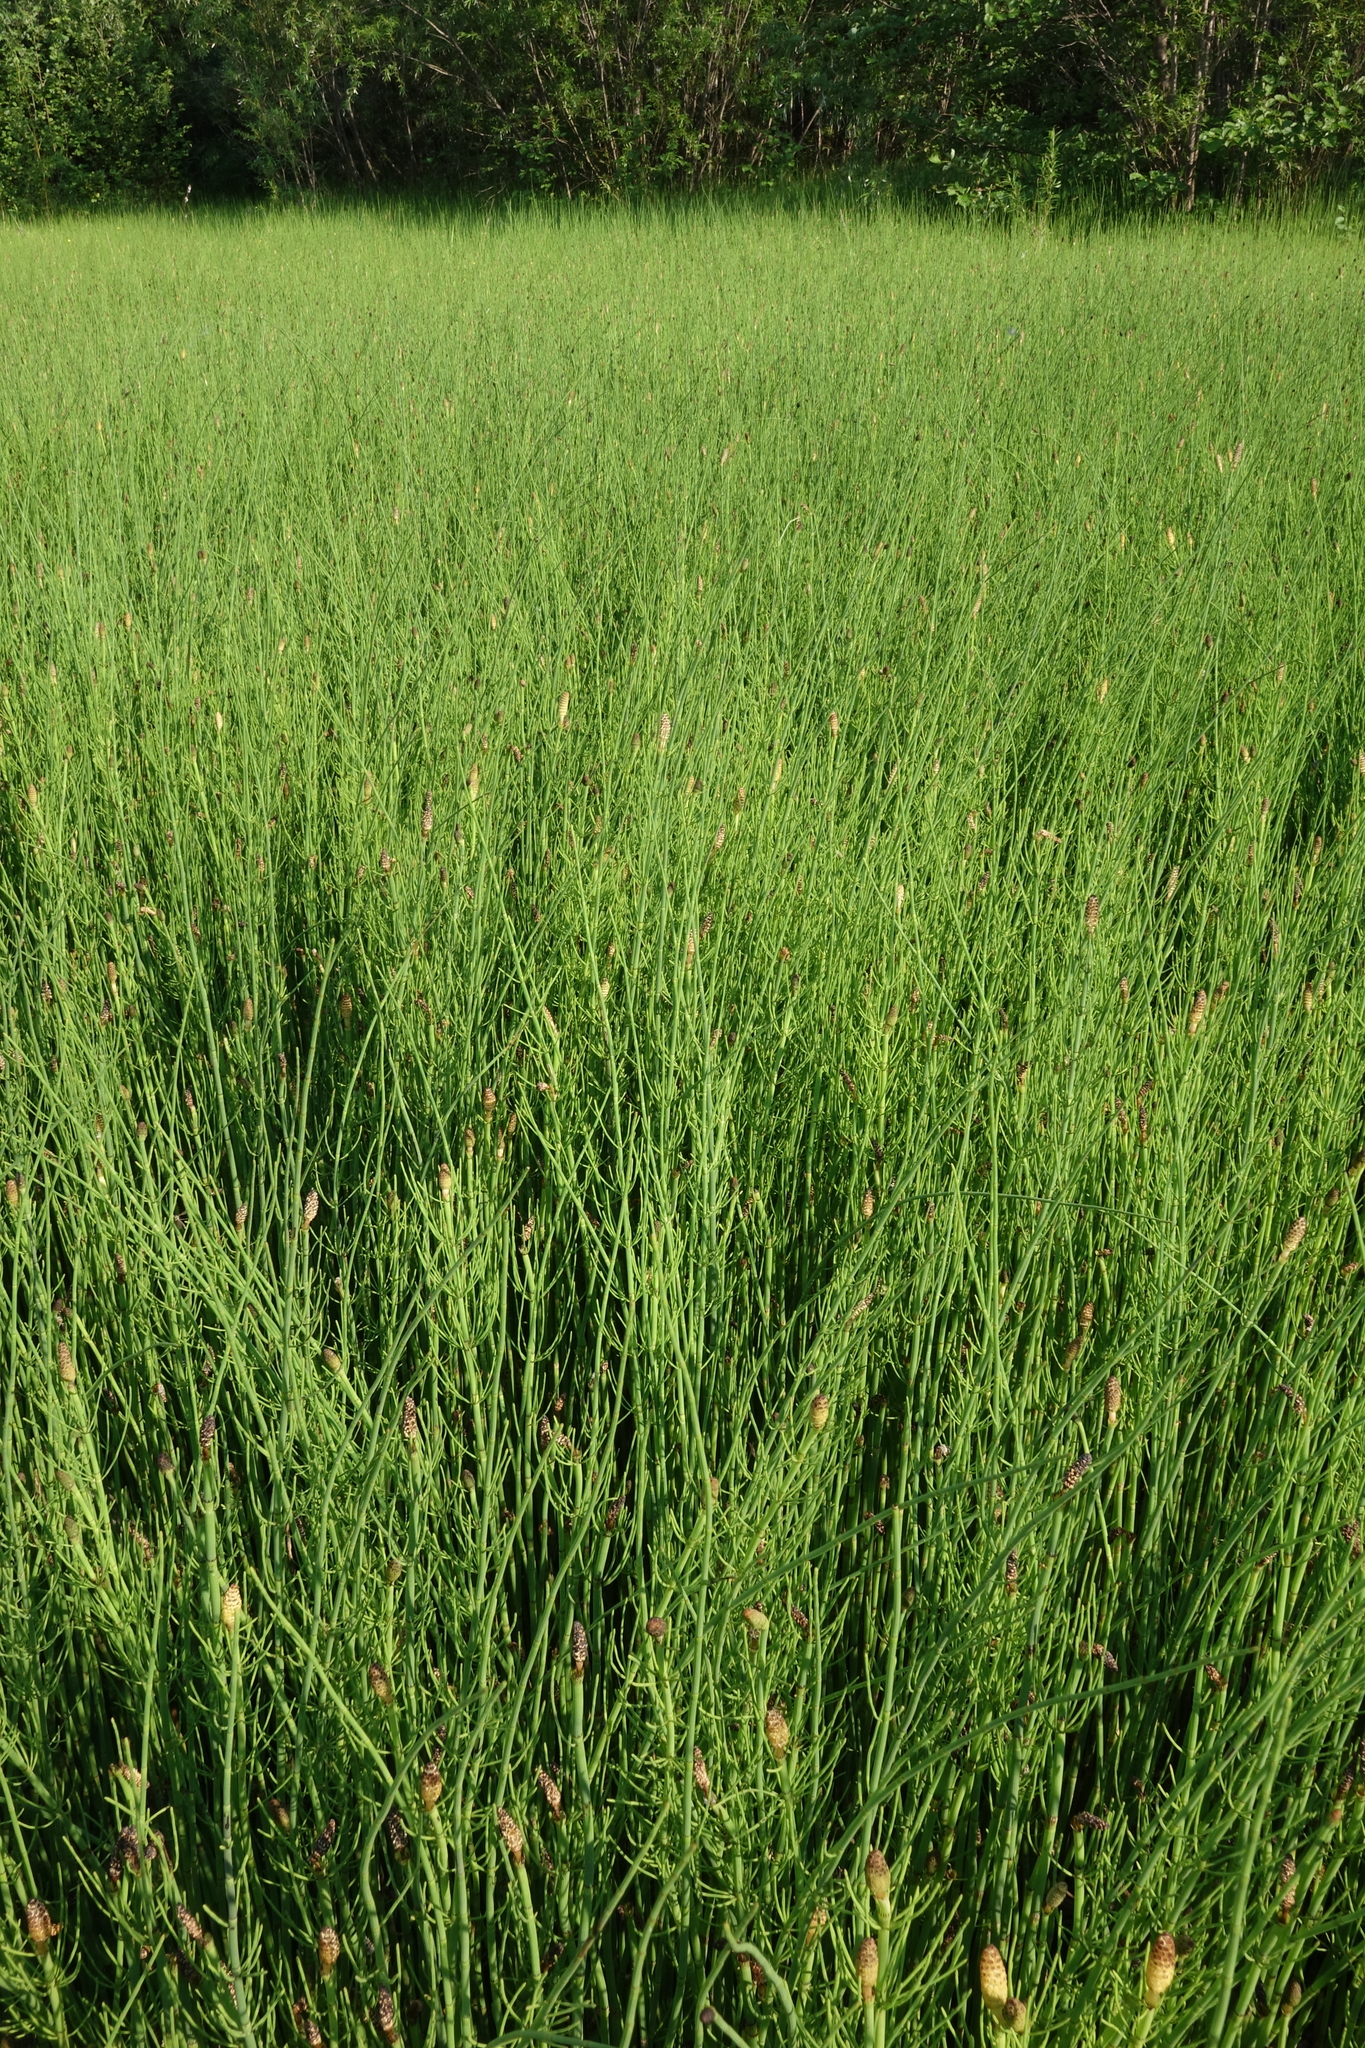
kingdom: Plantae
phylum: Tracheophyta
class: Polypodiopsida
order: Equisetales
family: Equisetaceae
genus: Equisetum
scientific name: Equisetum fluviatile
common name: Water horsetail
